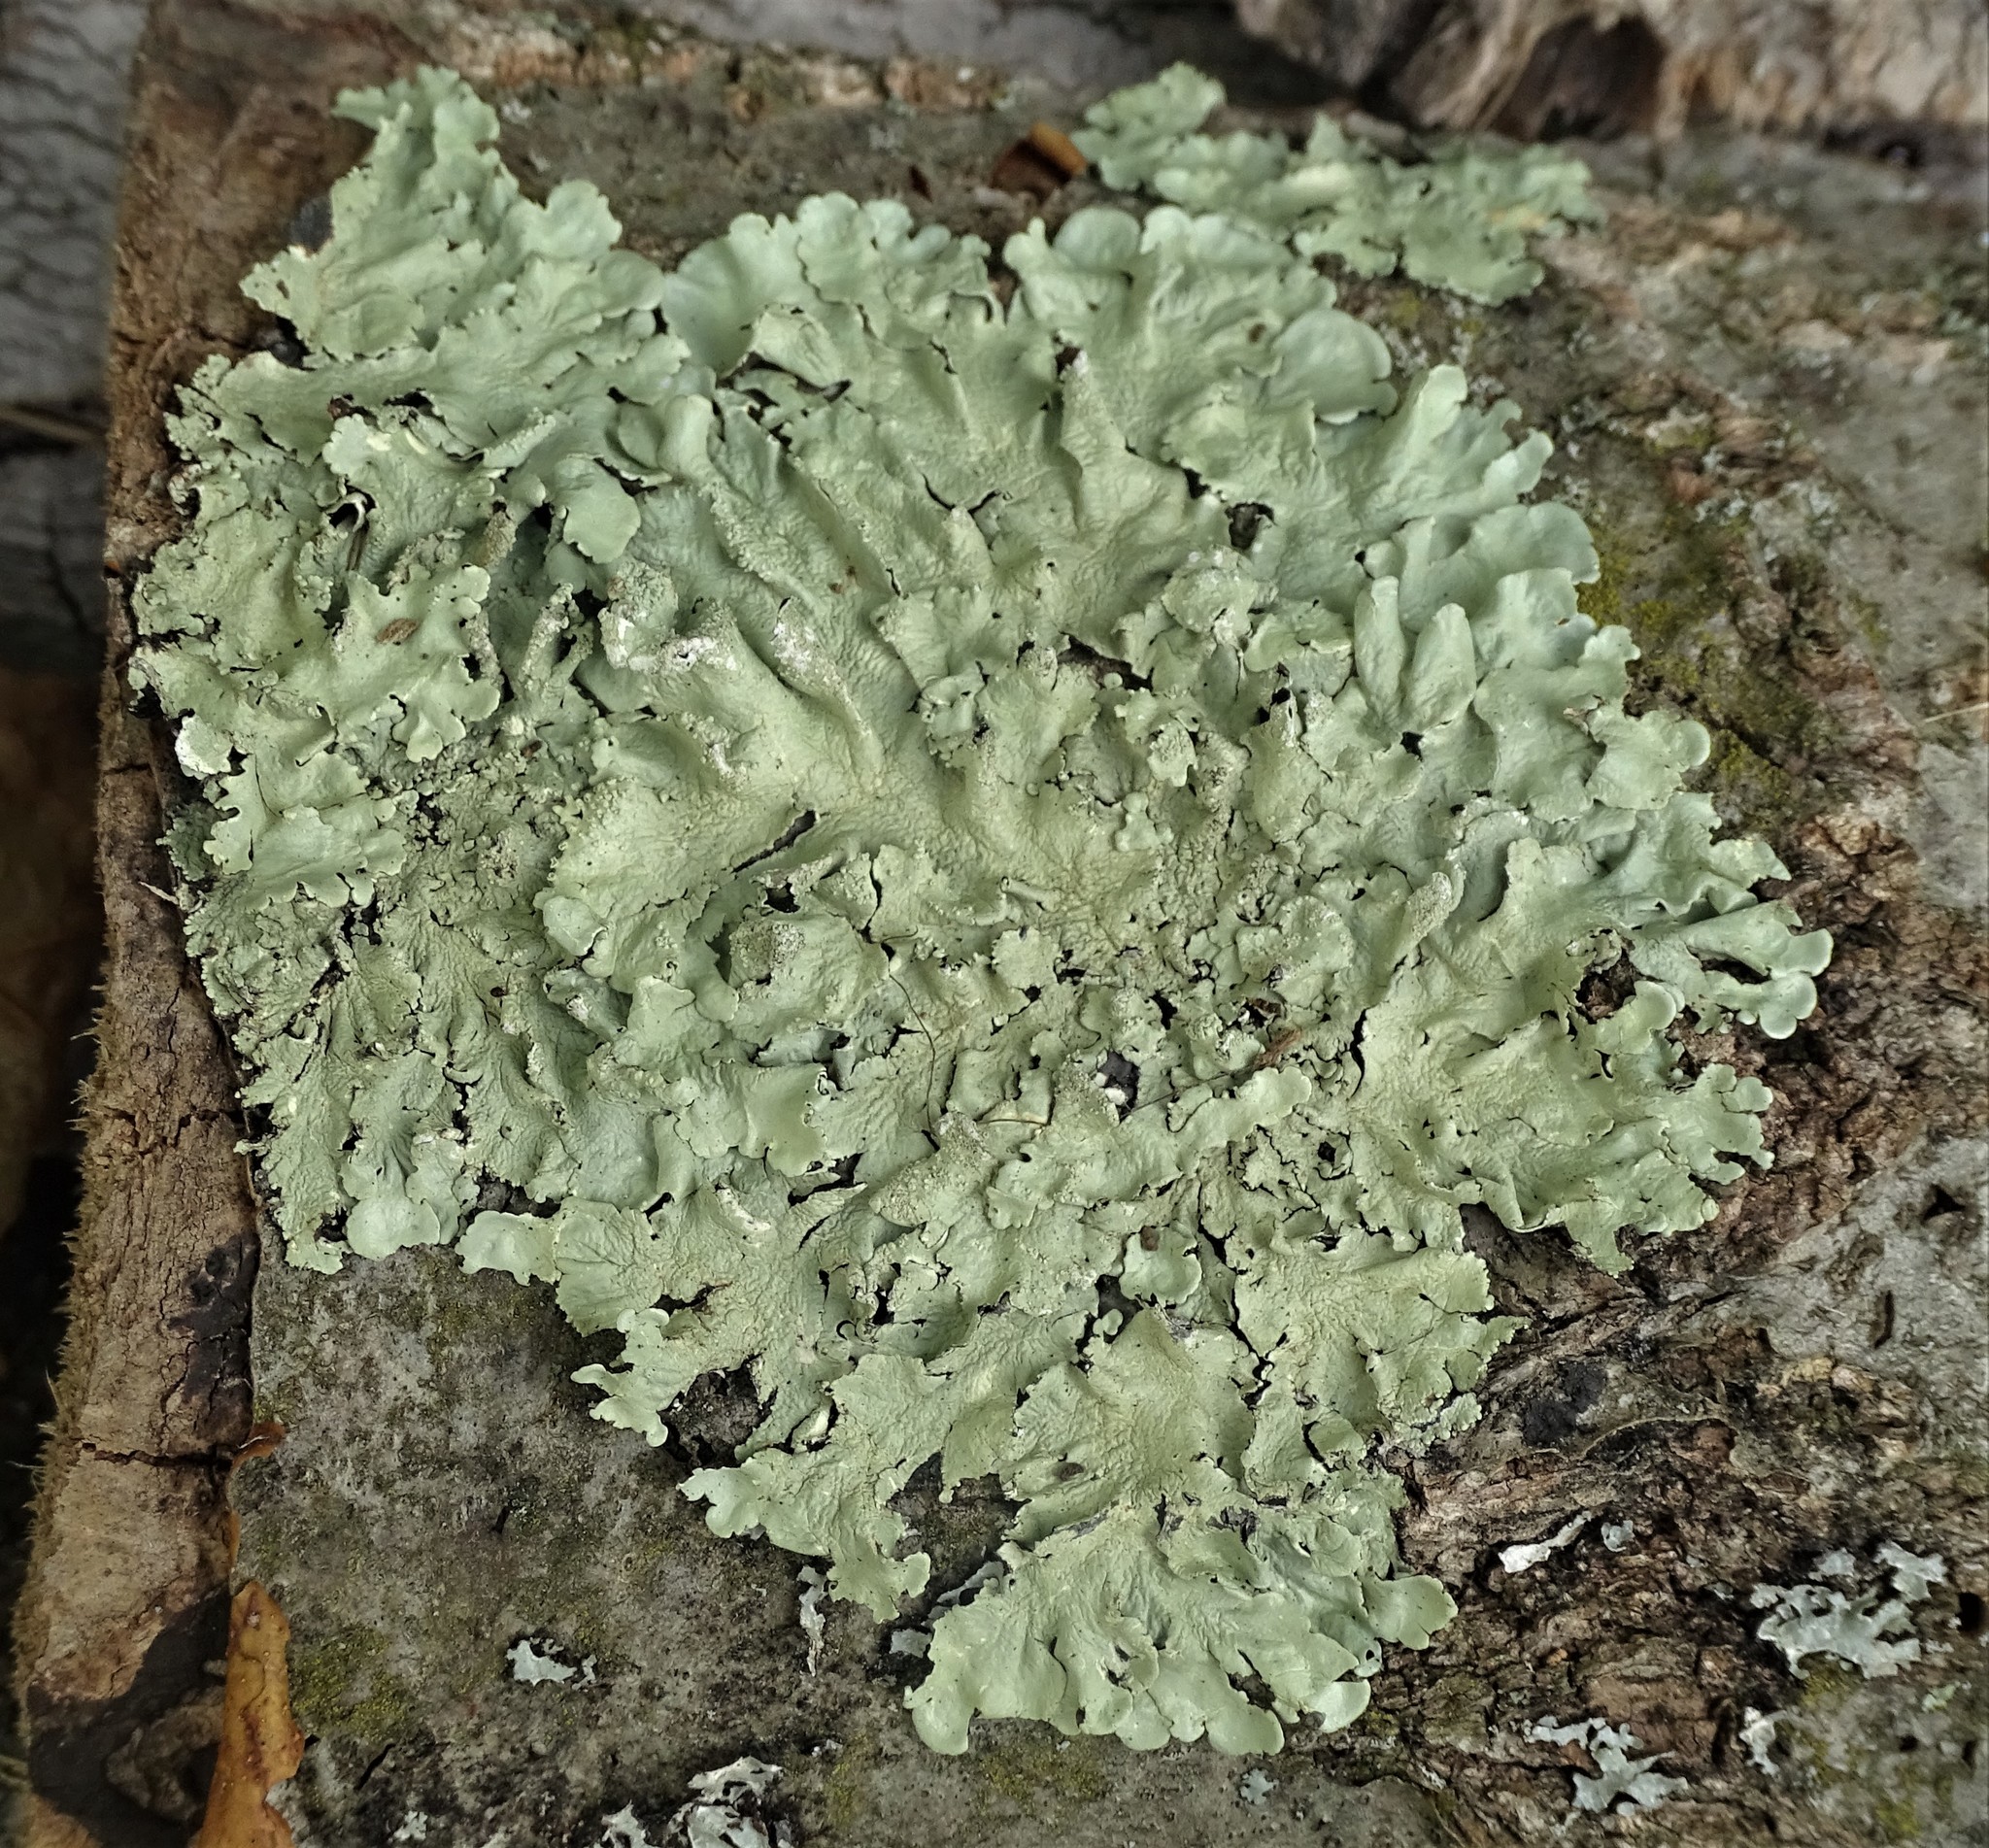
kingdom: Fungi
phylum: Ascomycota
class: Lecanoromycetes
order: Lecanorales
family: Parmeliaceae
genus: Flavoparmelia
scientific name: Flavoparmelia caperata
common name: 40-mile per hour lichen
